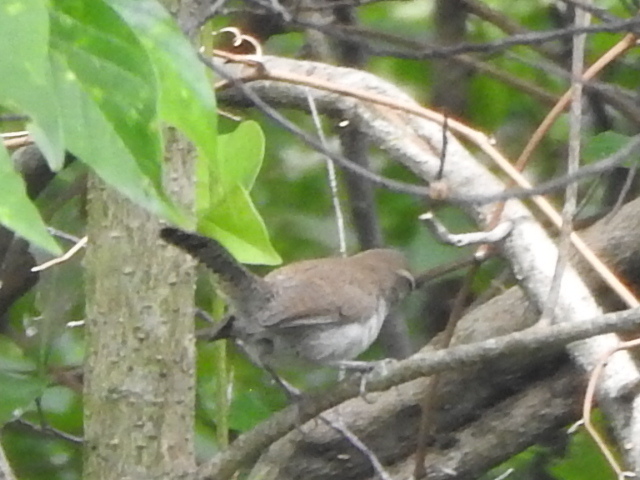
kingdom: Animalia
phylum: Chordata
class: Aves
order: Passeriformes
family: Troglodytidae
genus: Thryomanes
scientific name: Thryomanes bewickii
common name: Bewick's wren
